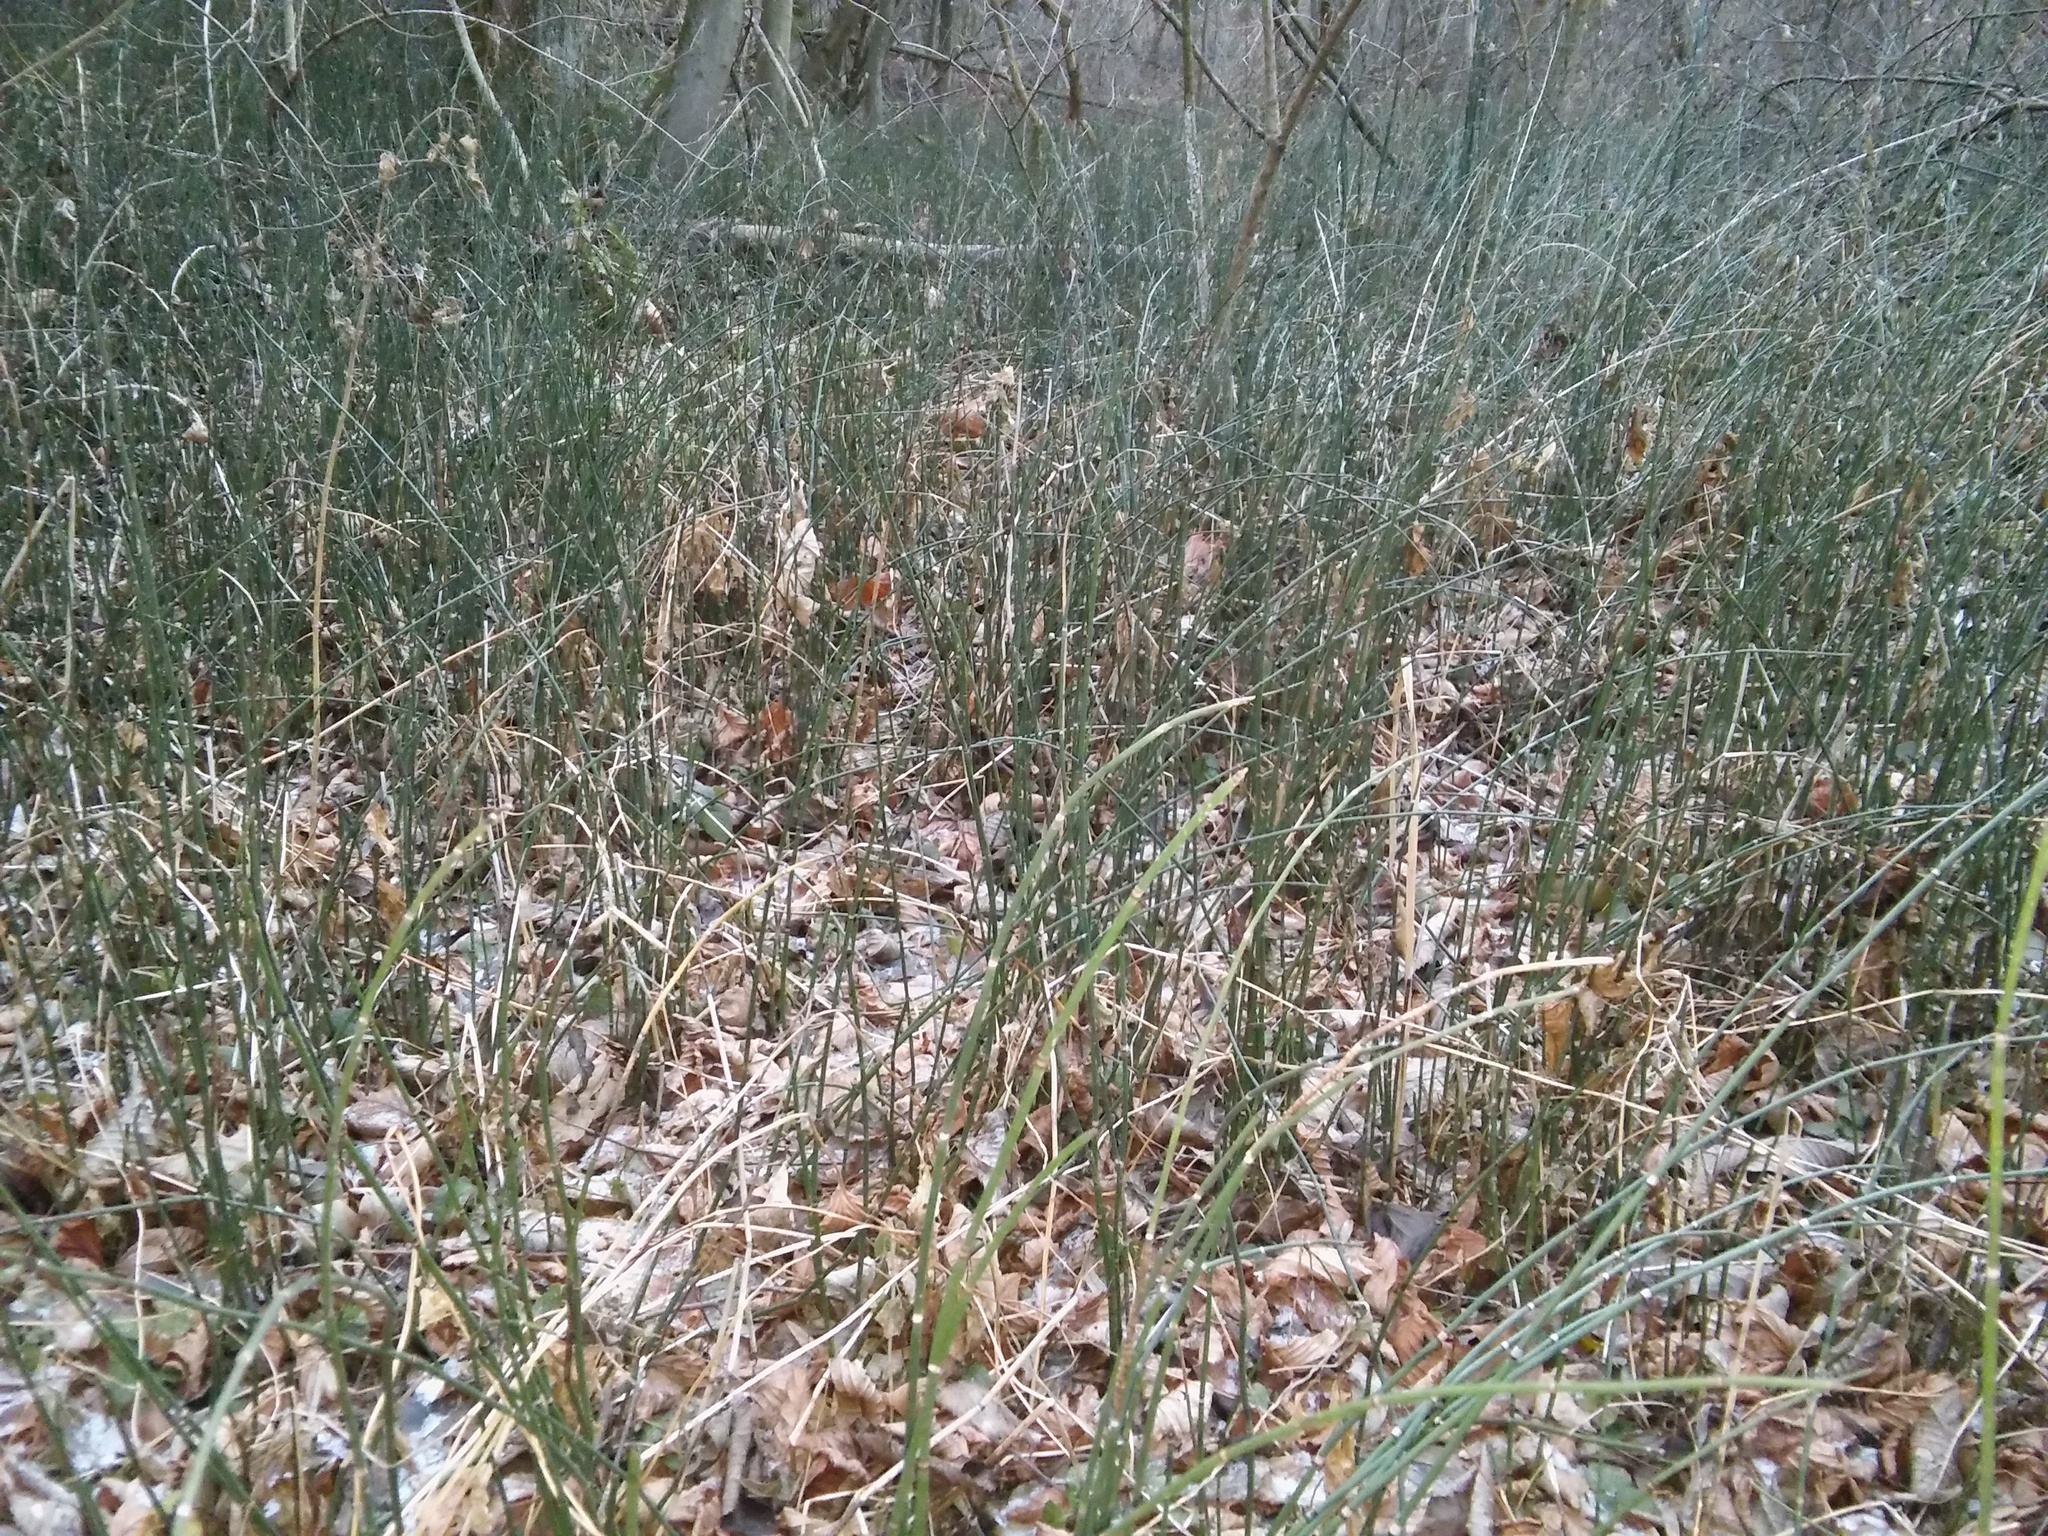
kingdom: Fungi
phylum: Ascomycota
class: Leotiomycetes
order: Helotiales
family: Helotiaceae
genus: Stamnaria
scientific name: Stamnaria americana
